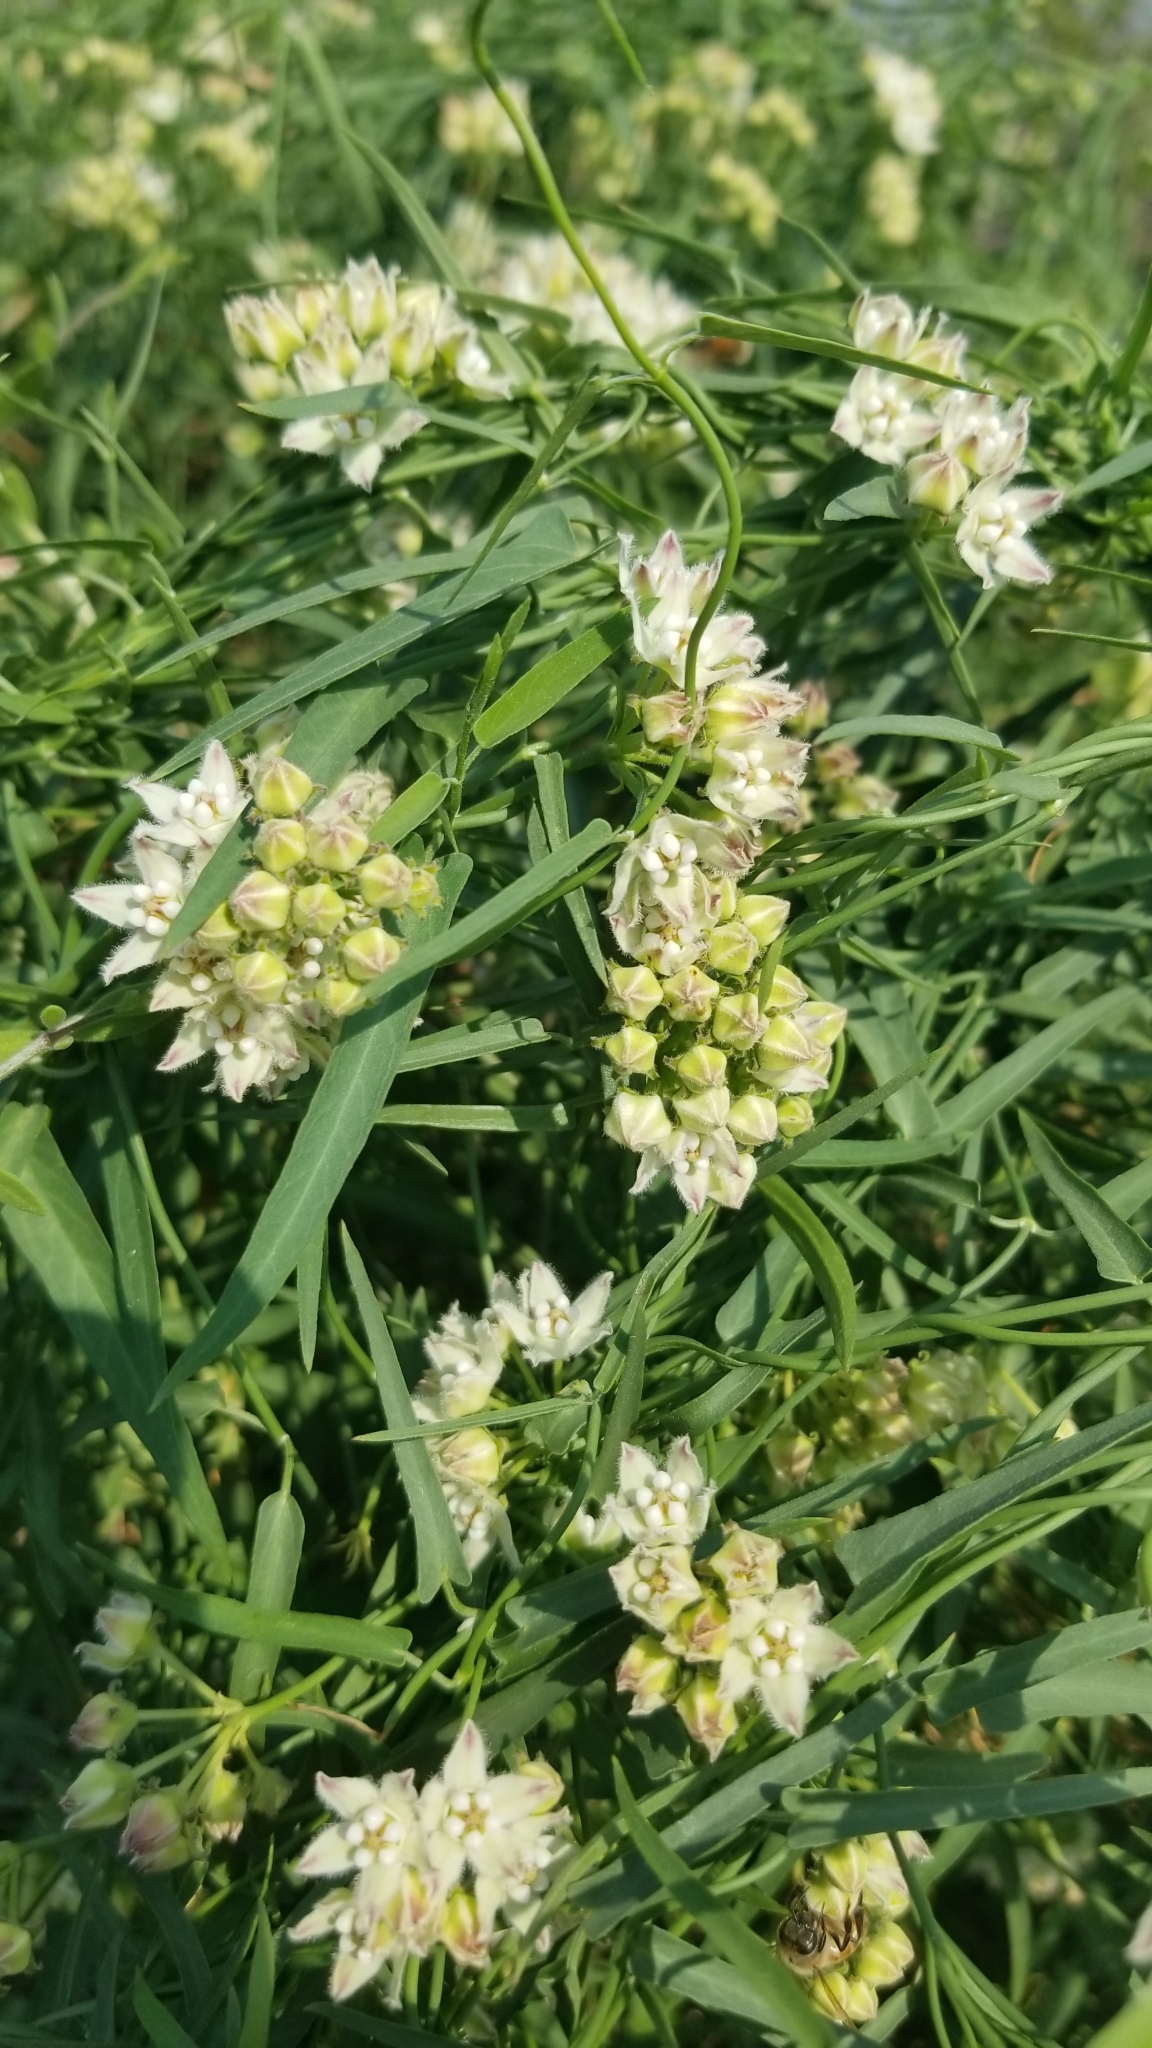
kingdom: Plantae
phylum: Tracheophyta
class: Magnoliopsida
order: Gentianales
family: Apocynaceae
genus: Funastrum
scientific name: Funastrum heterophyllum
